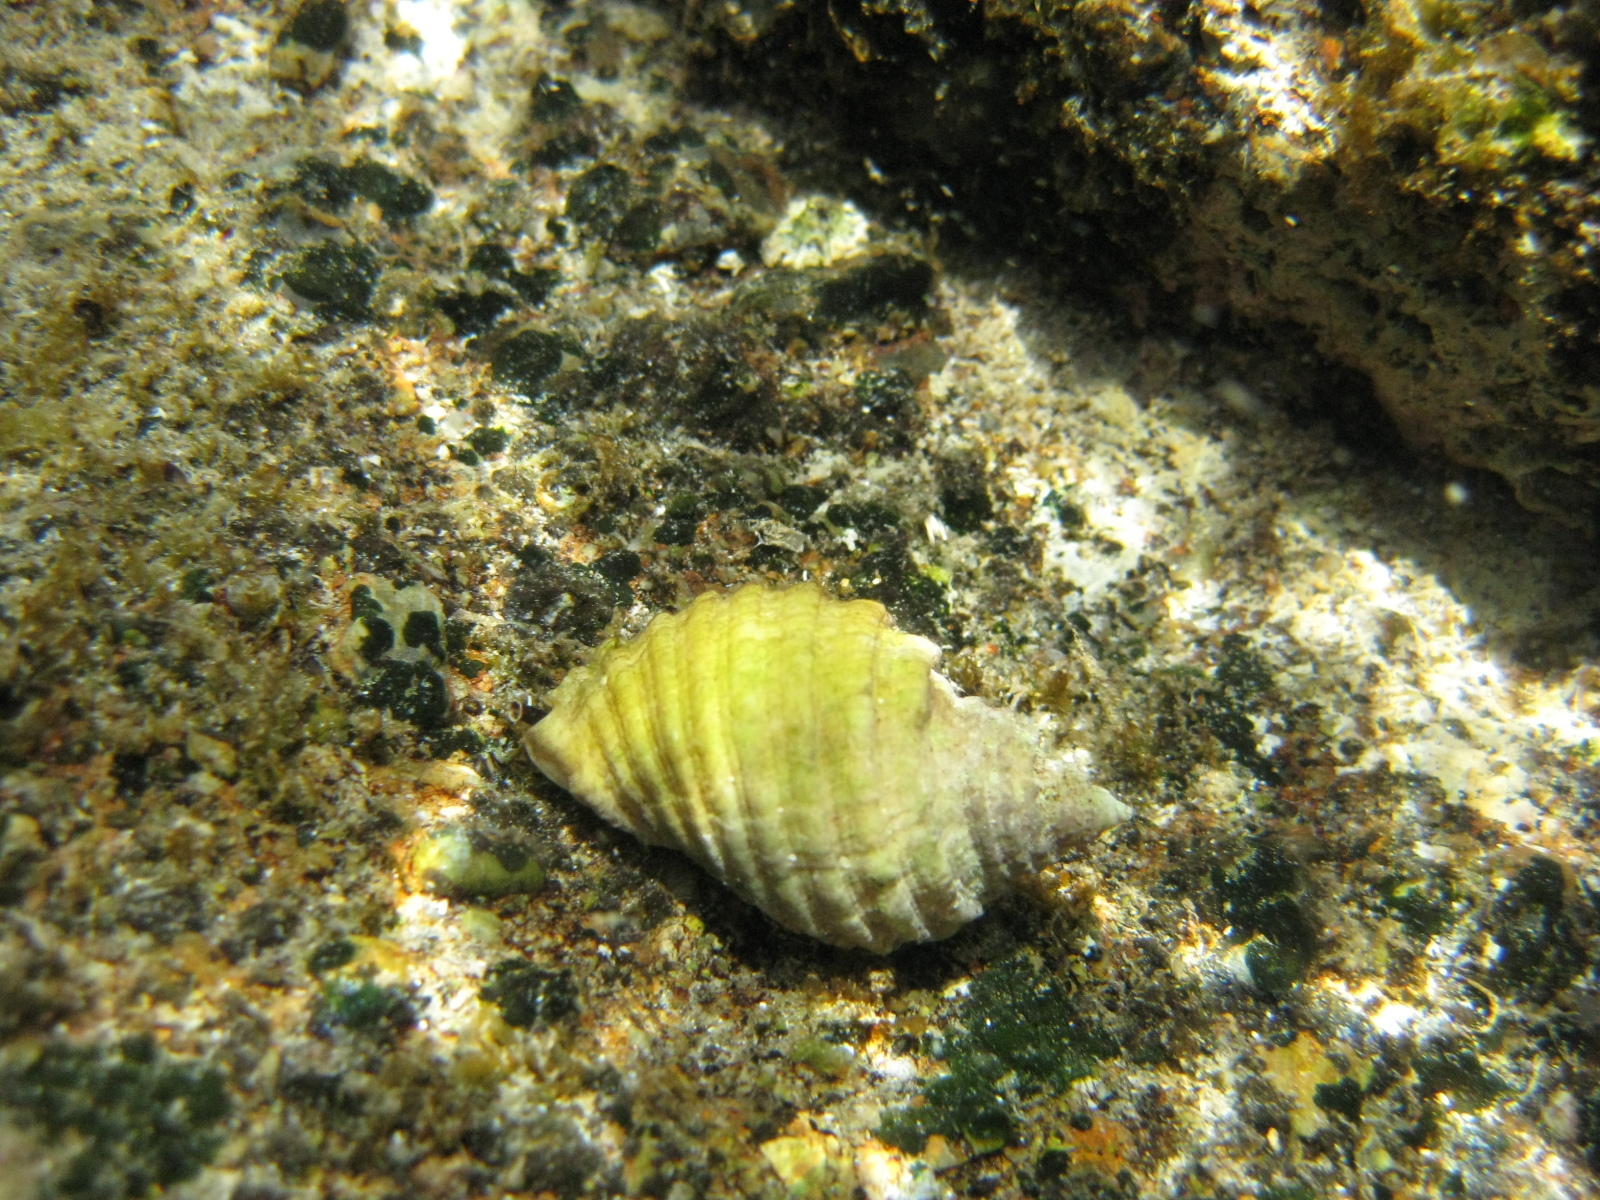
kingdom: Animalia
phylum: Mollusca
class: Gastropoda
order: Neogastropoda
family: Muricidae
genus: Dicathais
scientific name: Dicathais orbita
